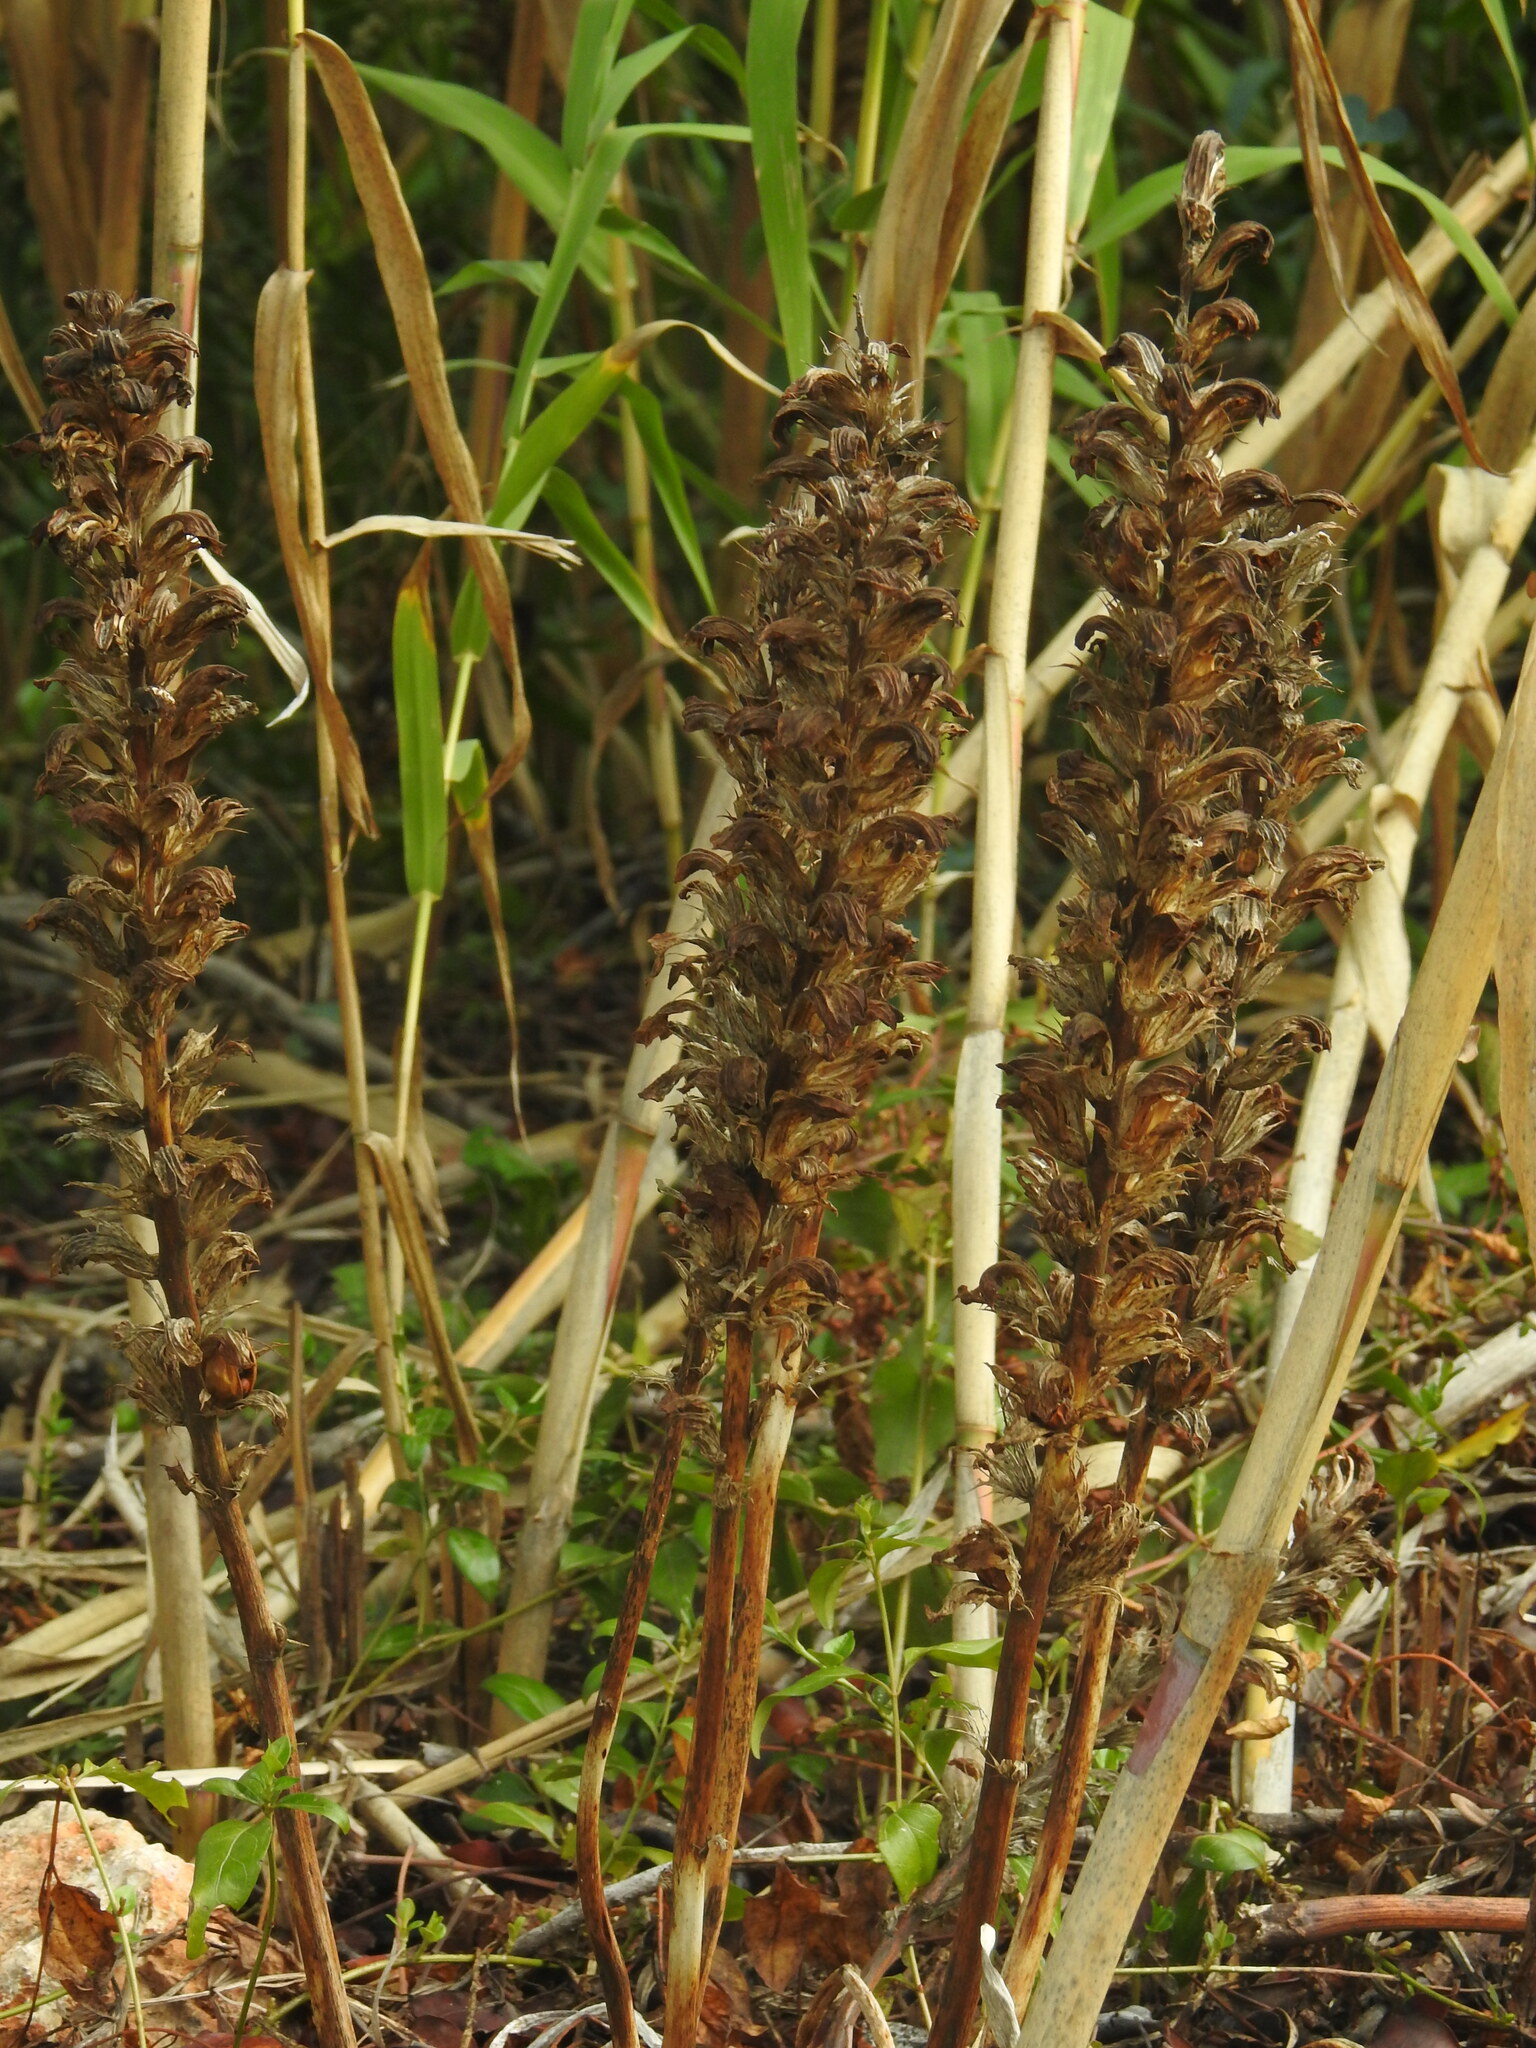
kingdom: Plantae
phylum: Tracheophyta
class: Magnoliopsida
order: Lamiales
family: Acanthaceae
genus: Acanthus
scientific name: Acanthus mollis
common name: Bear's-breech
